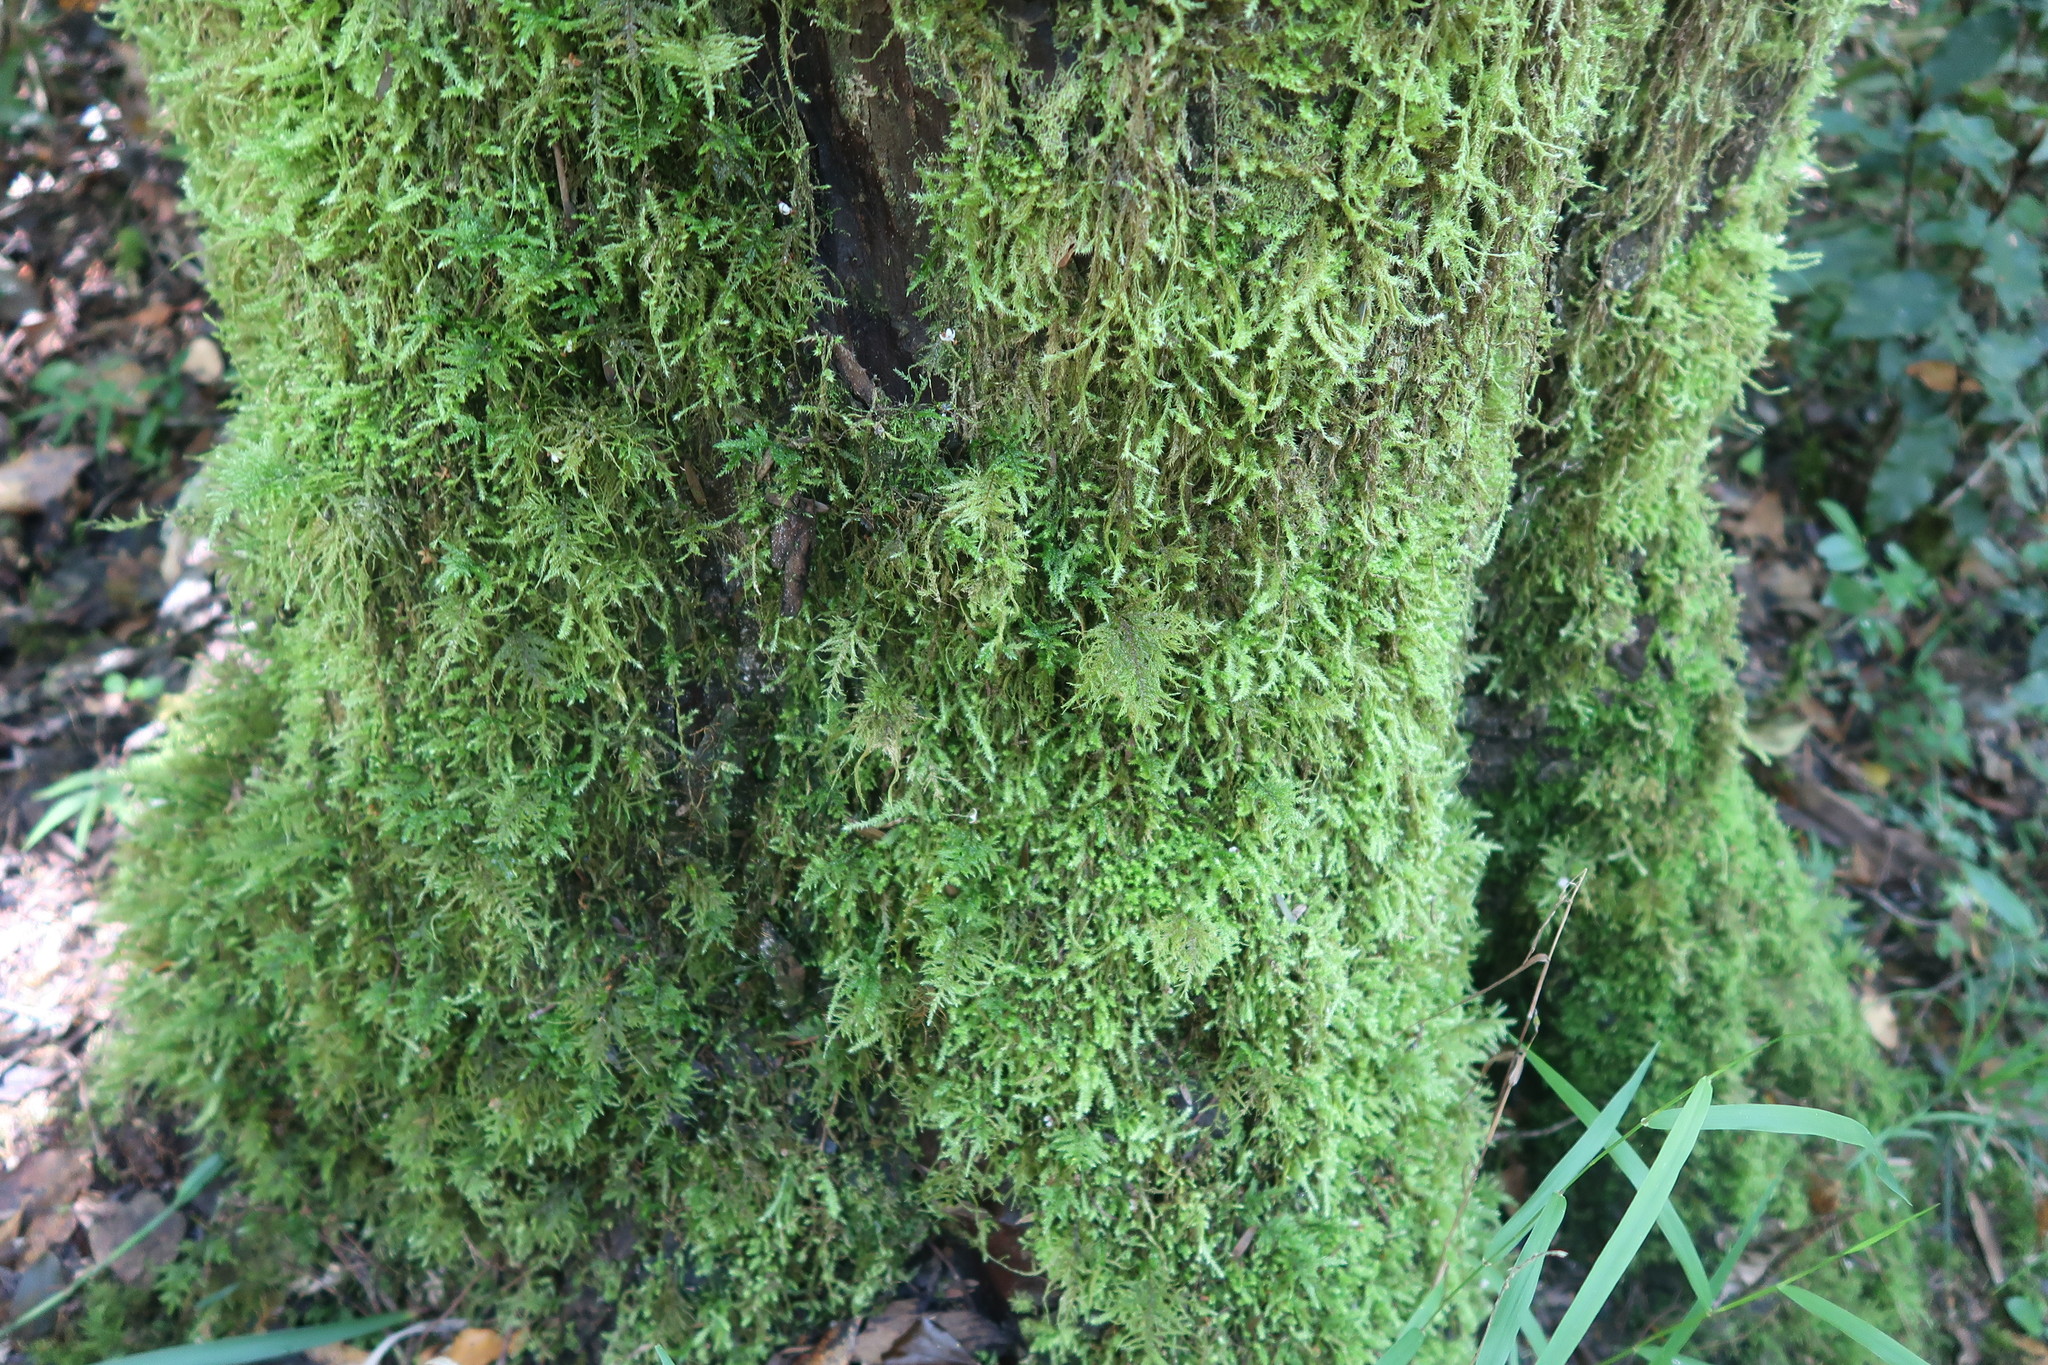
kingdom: Plantae
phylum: Tracheophyta
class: Pinopsida
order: Pinales
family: Podocarpaceae
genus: Afrocarpus
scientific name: Afrocarpus falcatus
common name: Bastard yellowwood
